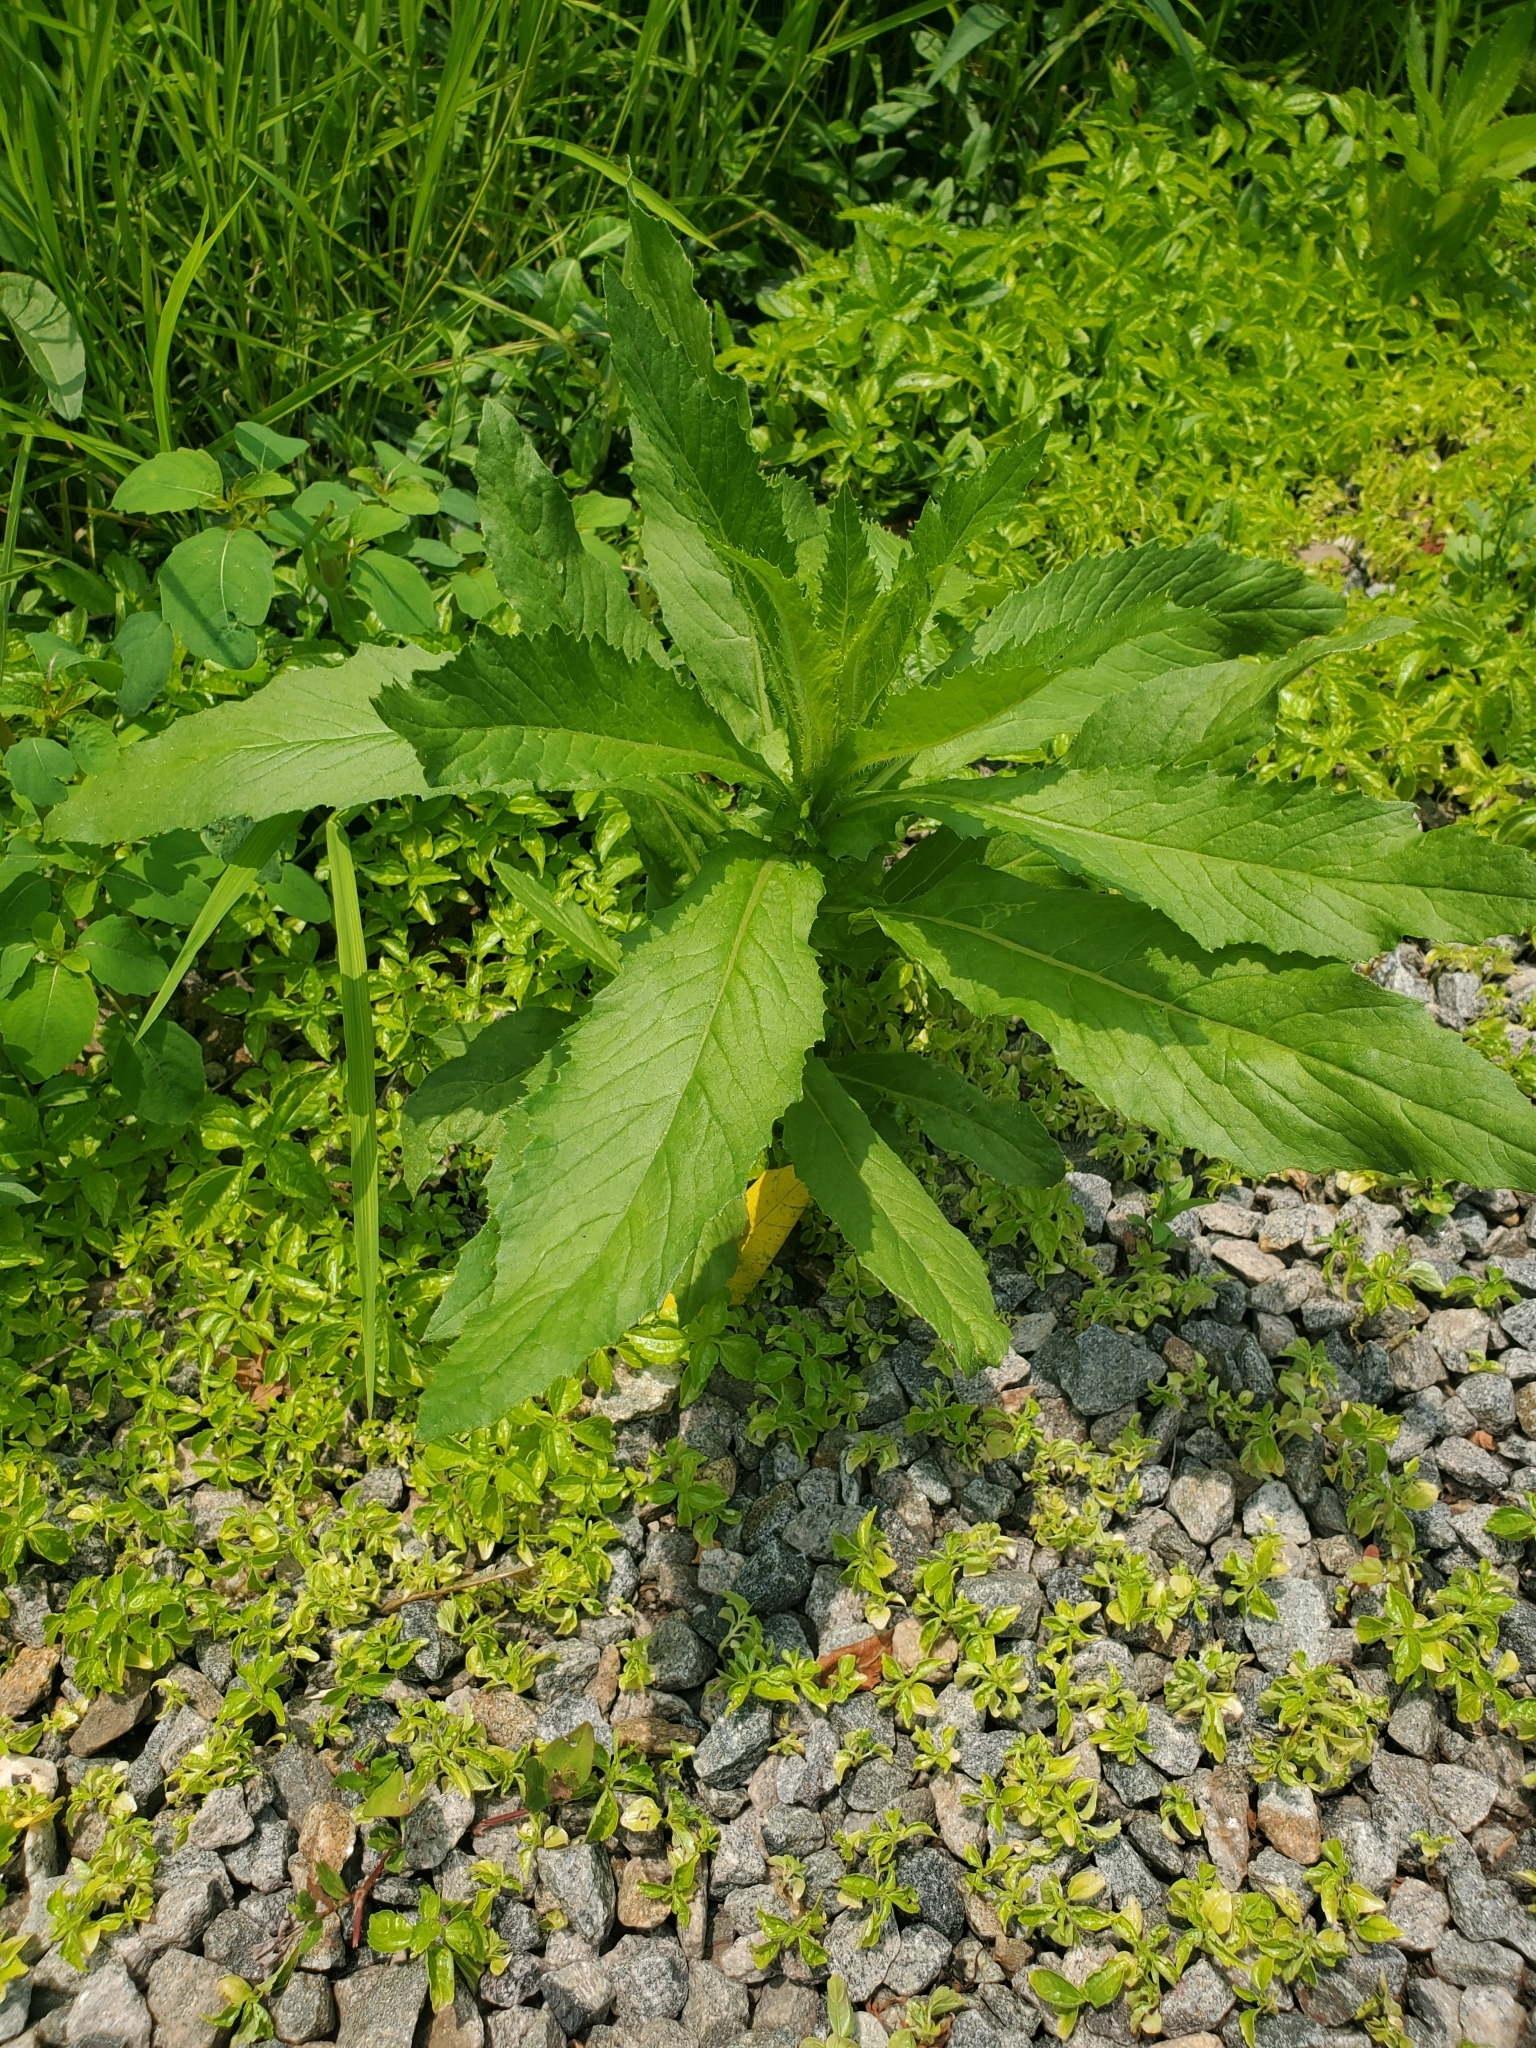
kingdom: Plantae
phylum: Tracheophyta
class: Magnoliopsida
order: Asterales
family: Asteraceae
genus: Erechtites
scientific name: Erechtites hieraciifolius
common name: American burnweed
